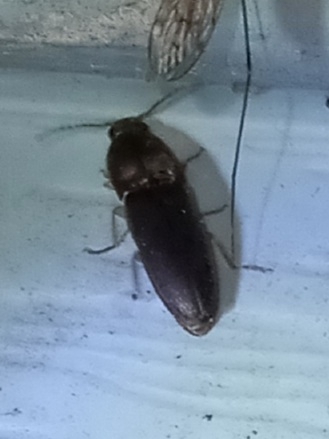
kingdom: Animalia
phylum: Arthropoda
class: Insecta
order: Coleoptera
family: Elateridae
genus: Conoderus
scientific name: Conoderus exsul
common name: Click beetle
